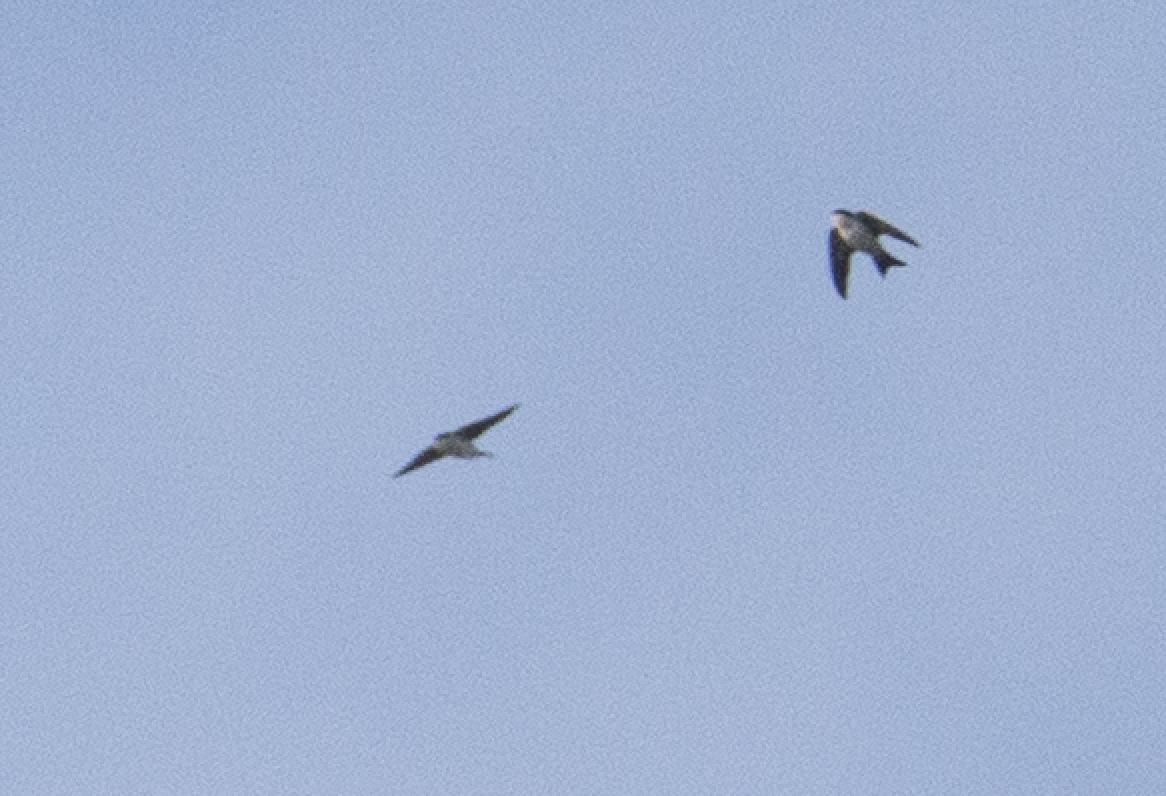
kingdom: Animalia
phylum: Chordata
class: Aves
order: Passeriformes
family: Hirundinidae
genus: Delichon
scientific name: Delichon urbicum
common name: Common house martin
